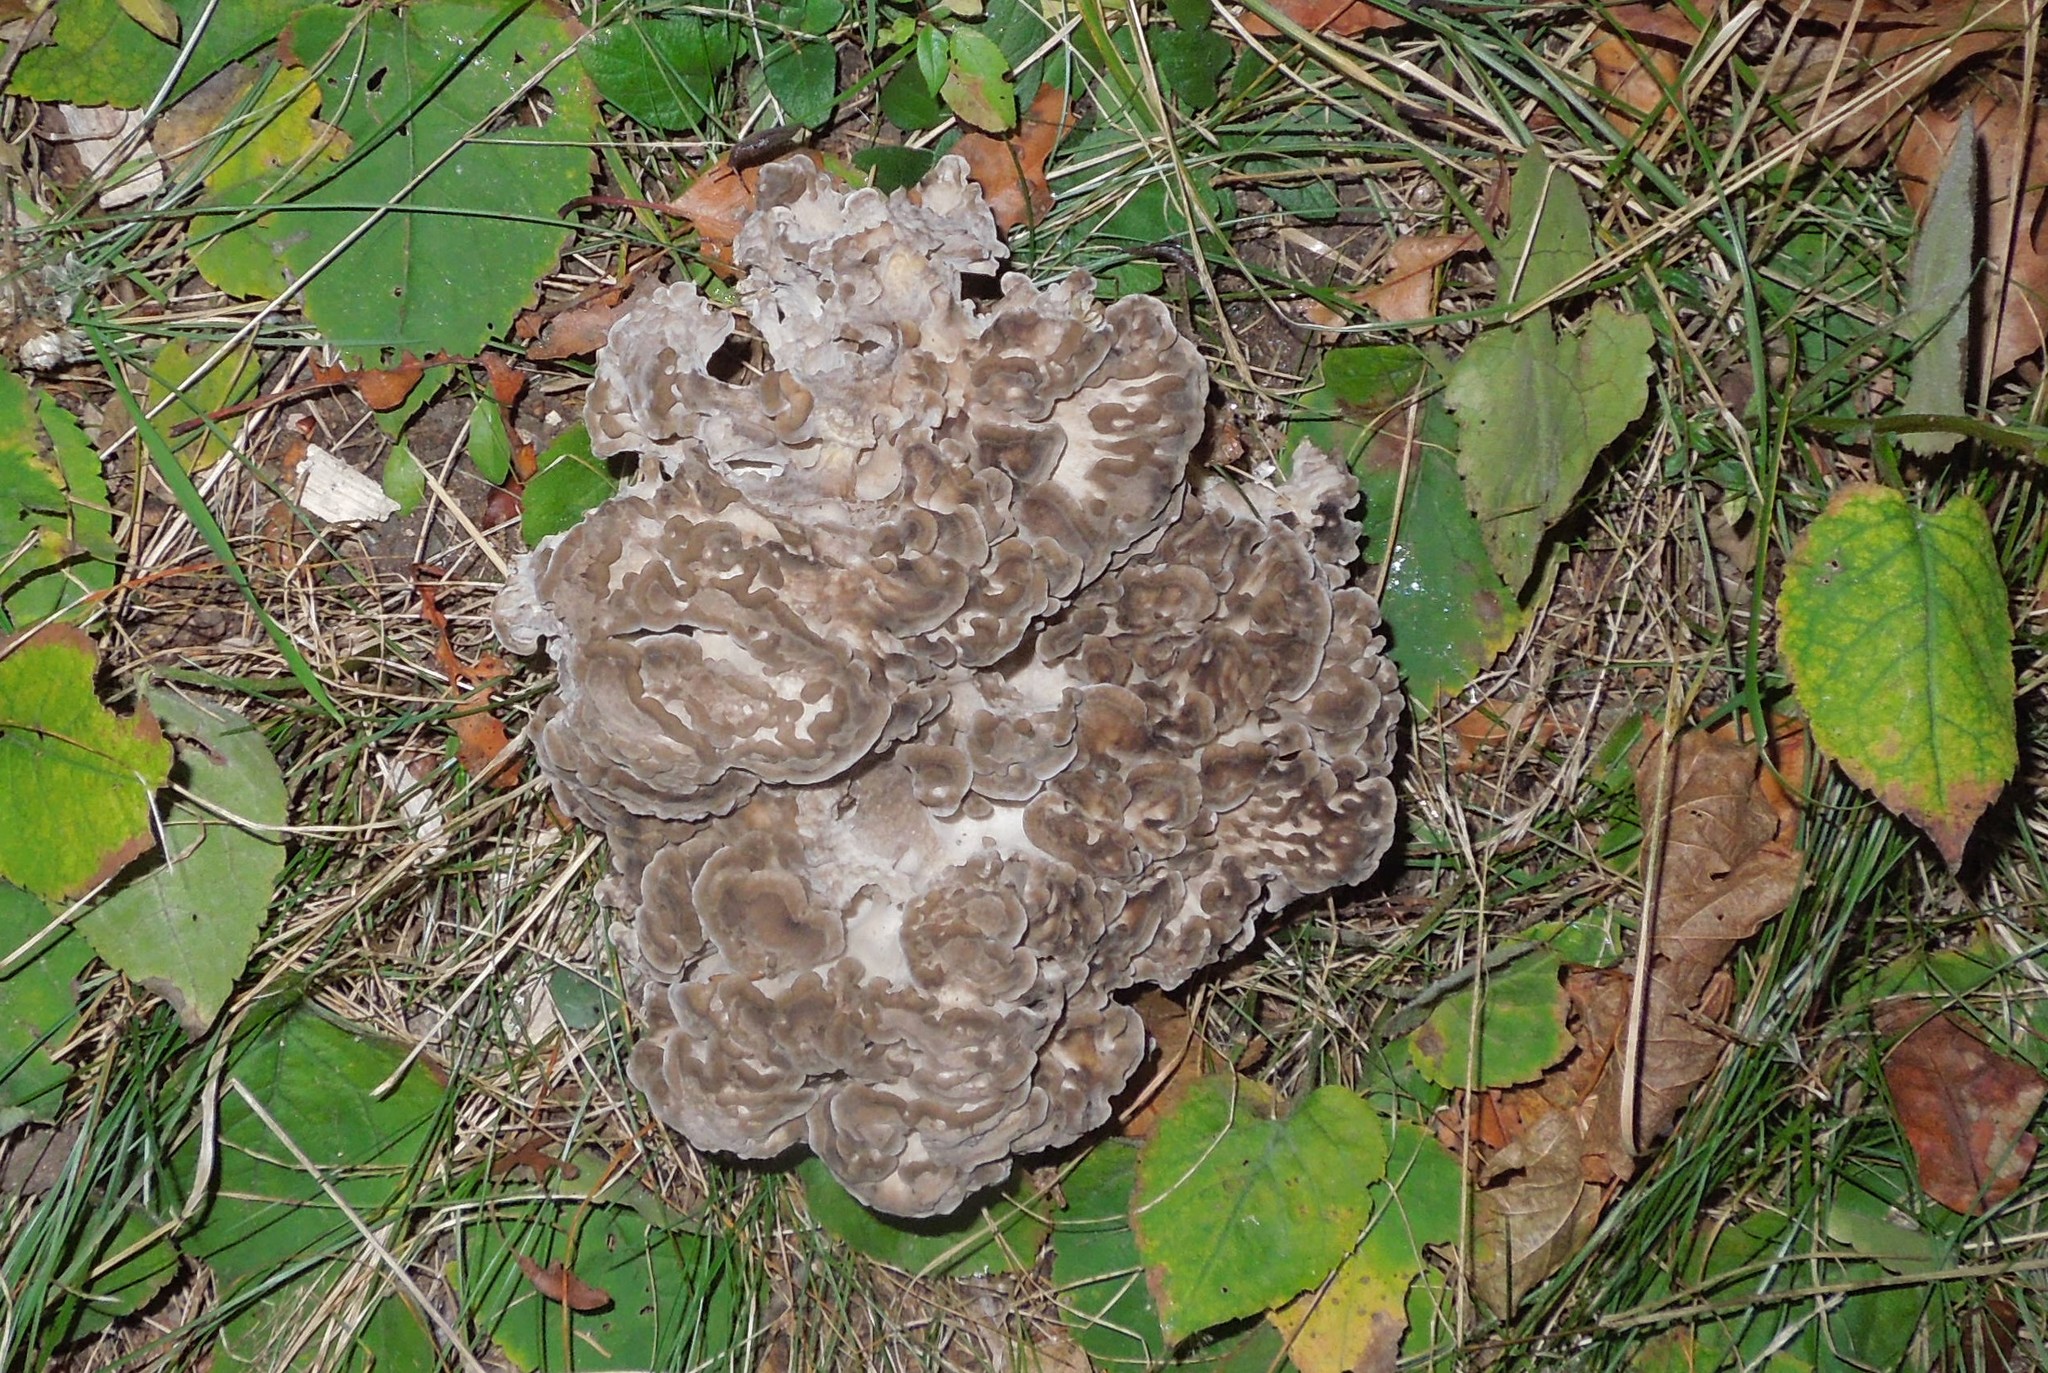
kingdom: Fungi
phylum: Basidiomycota
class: Agaricomycetes
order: Polyporales
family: Grifolaceae
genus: Grifola
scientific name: Grifola frondosa
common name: Hen of the woods
